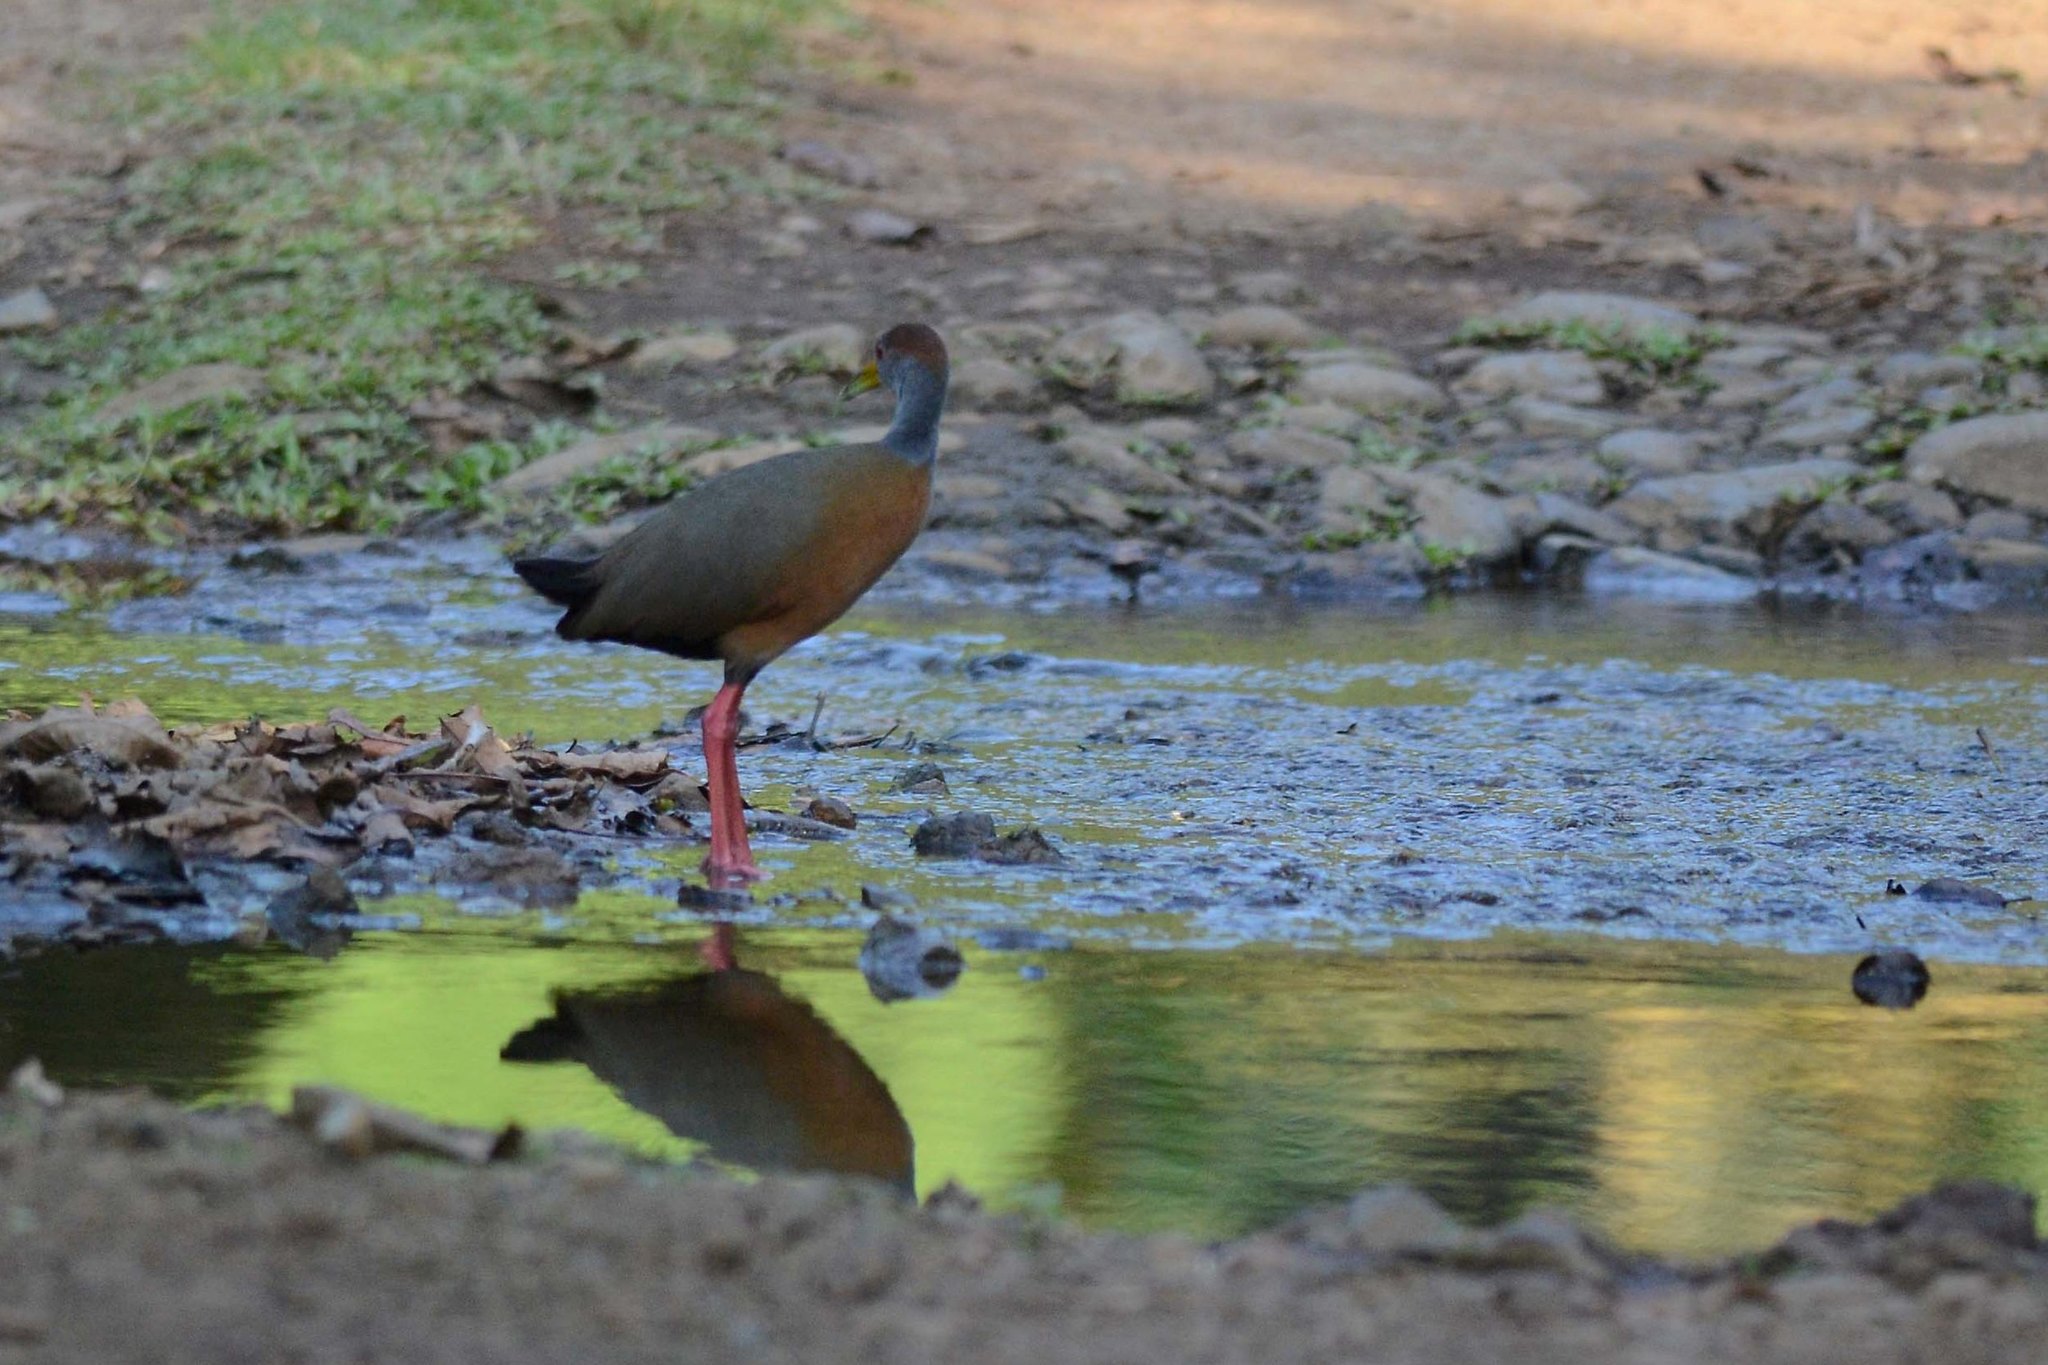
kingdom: Animalia
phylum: Chordata
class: Aves
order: Gruiformes
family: Rallidae
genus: Aramides
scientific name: Aramides albiventris
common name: Russet-naped wood-rail
